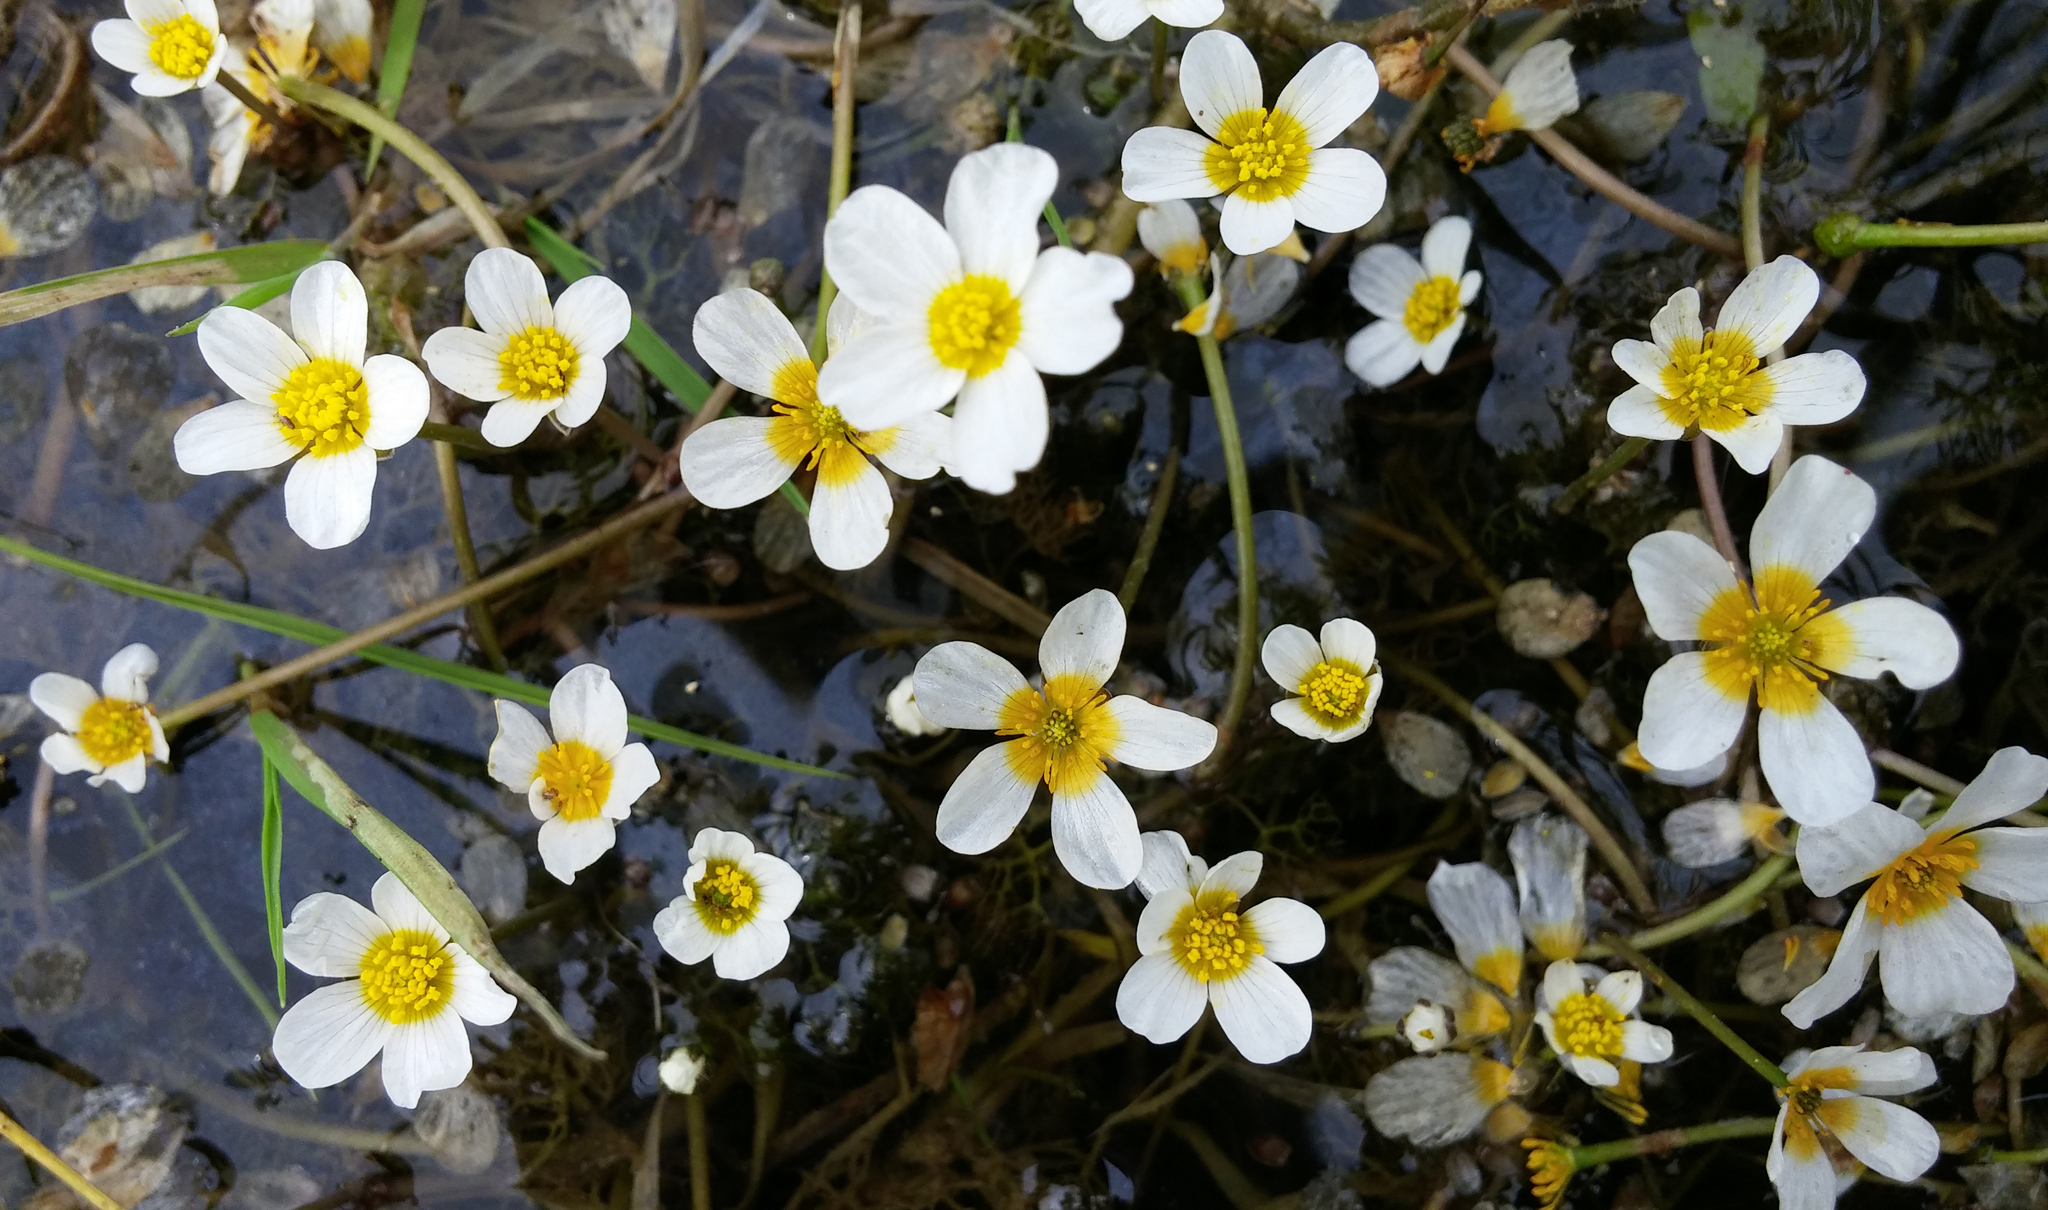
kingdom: Plantae
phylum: Tracheophyta
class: Magnoliopsida
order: Ranunculales
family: Ranunculaceae
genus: Ranunculus
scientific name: Ranunculus rionii
